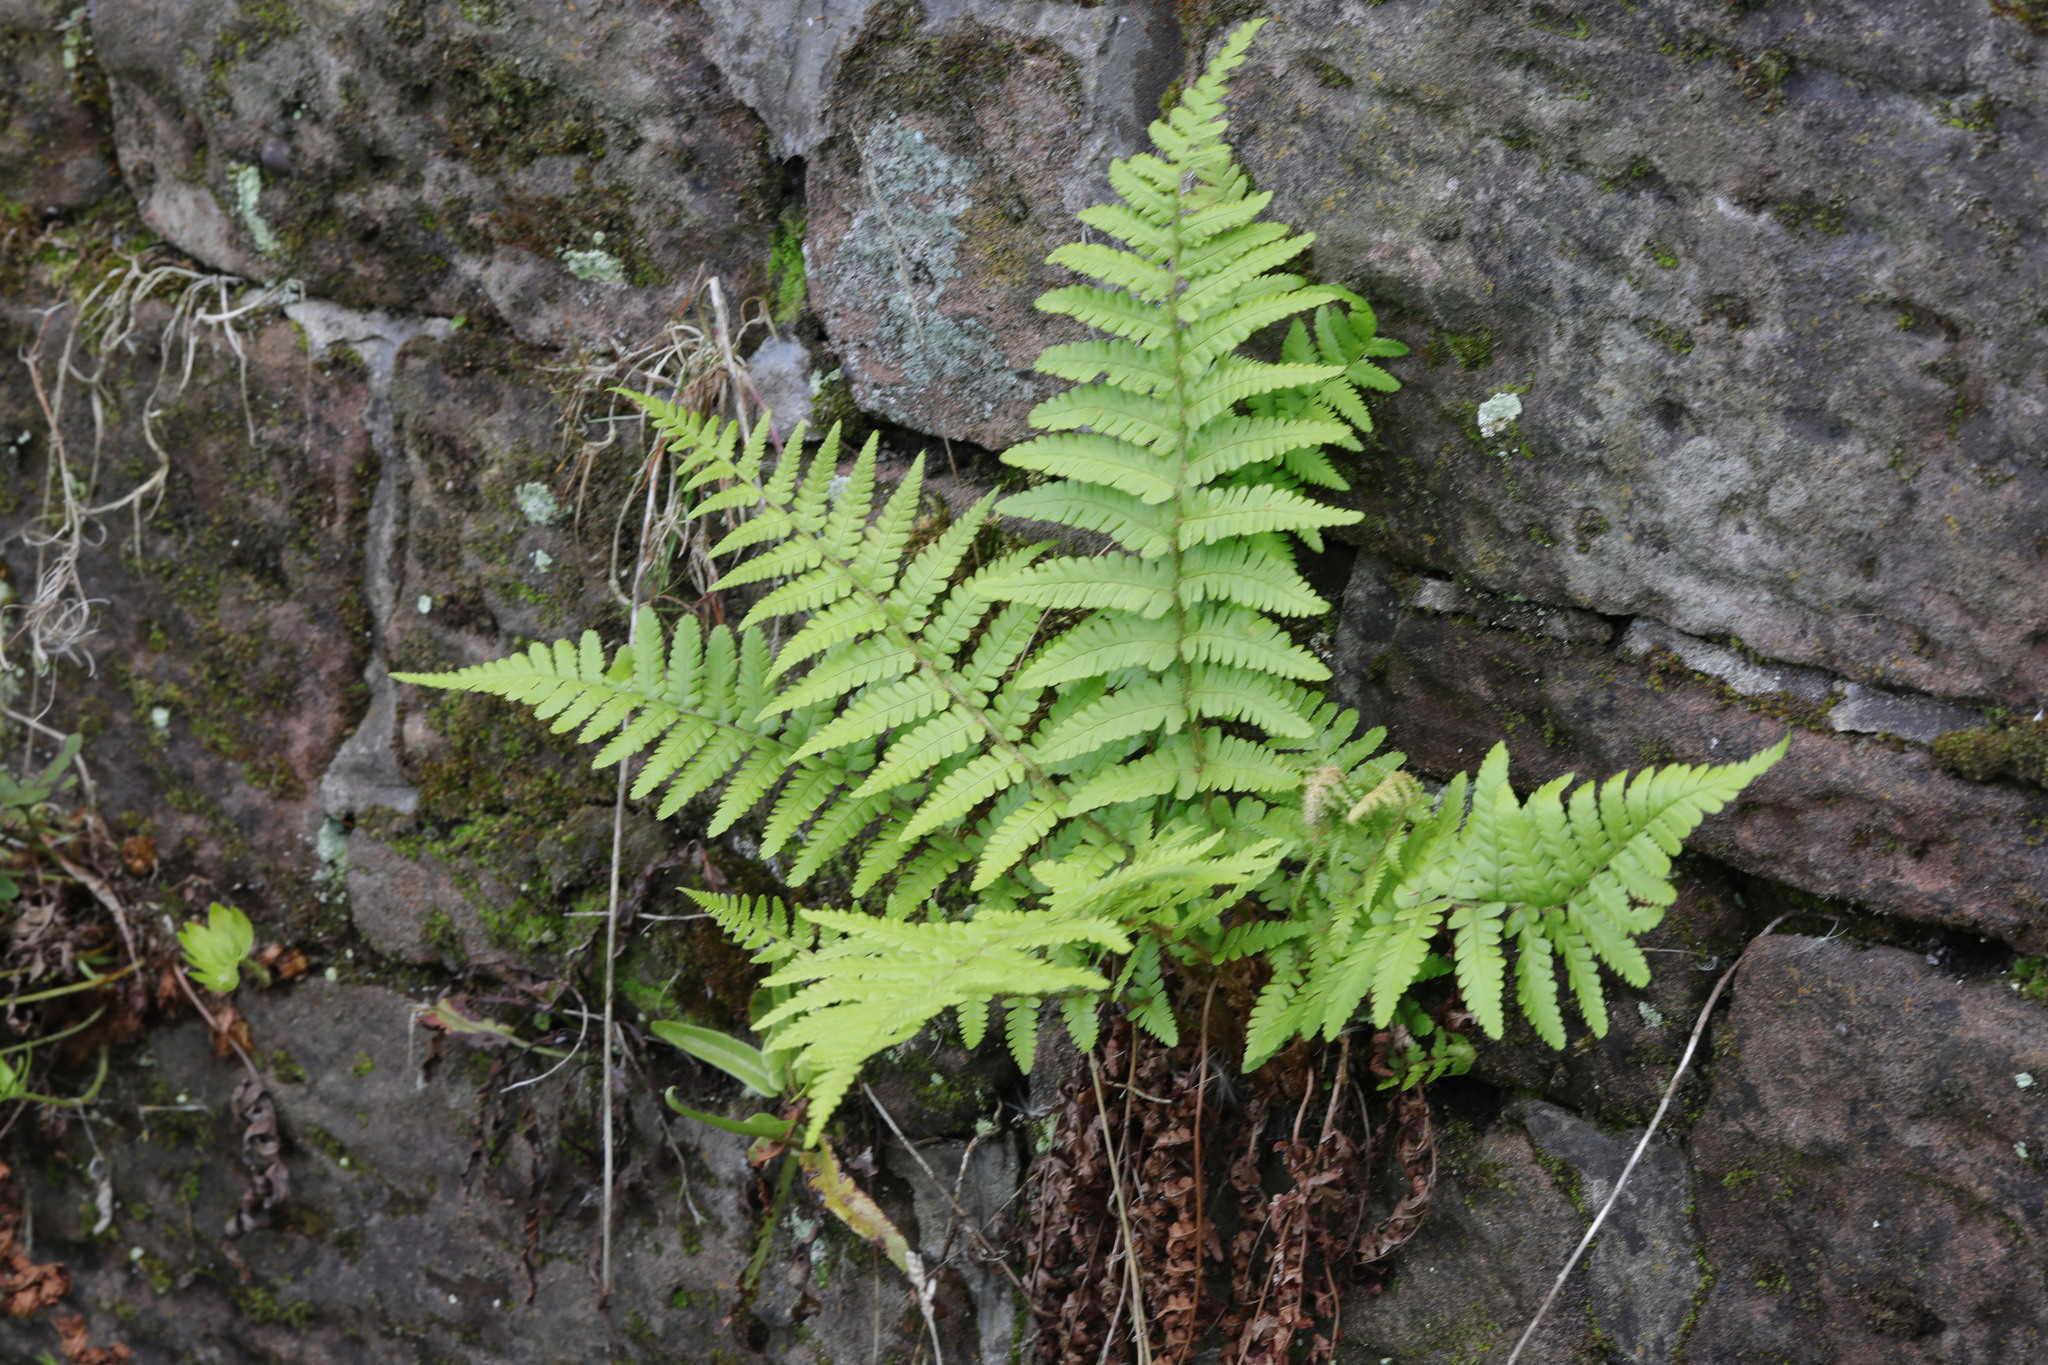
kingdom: Plantae
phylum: Tracheophyta
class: Polypodiopsida
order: Polypodiales
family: Dryopteridaceae
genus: Dryopteris
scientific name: Dryopteris filix-mas
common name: Male fern
